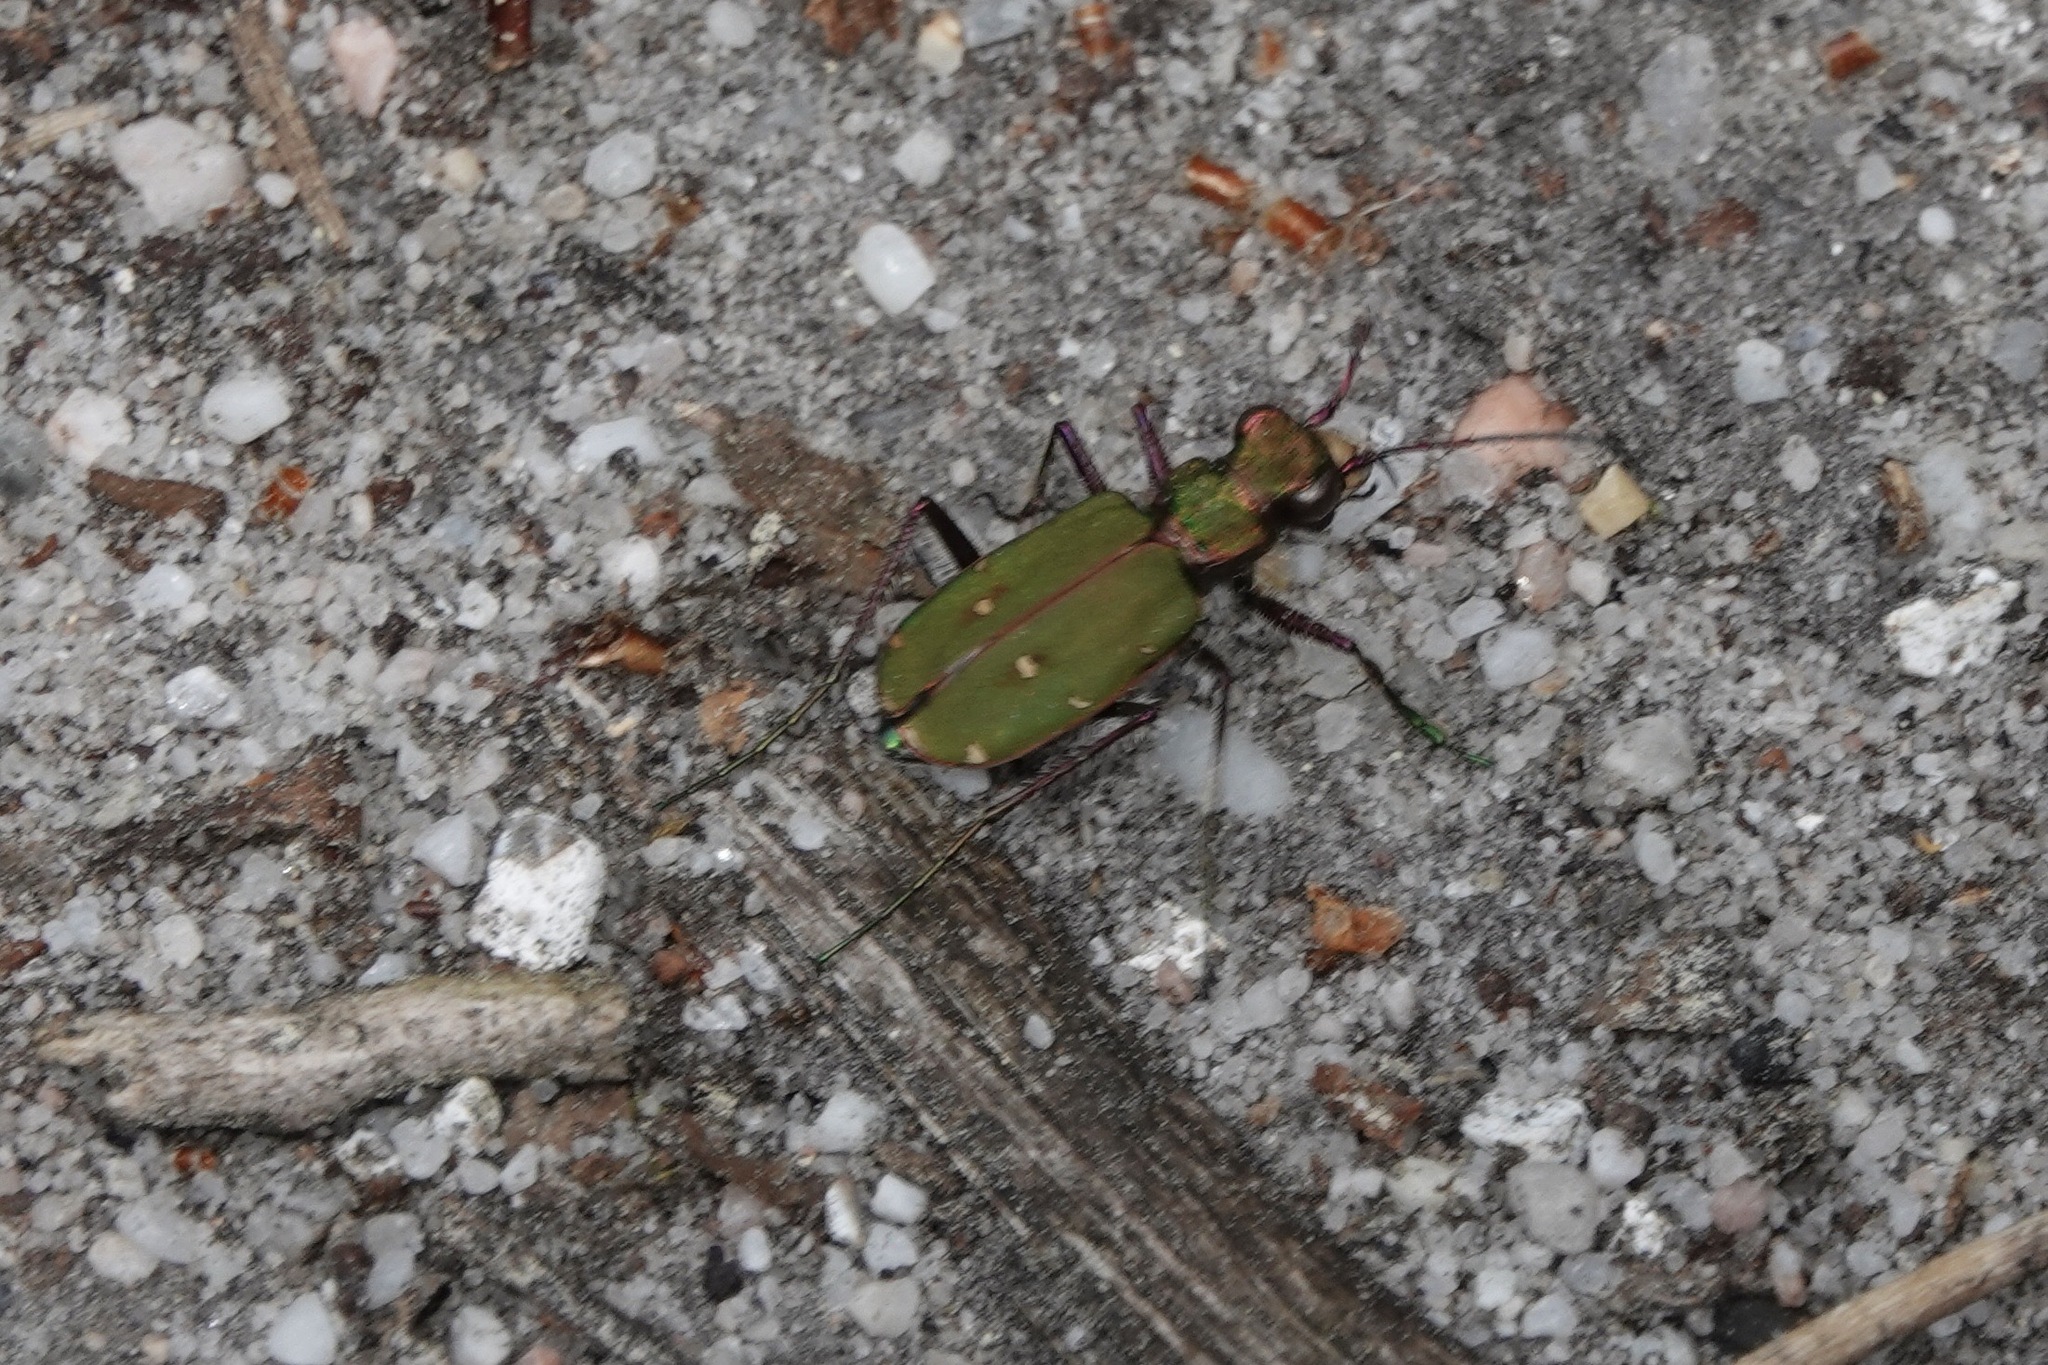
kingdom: Animalia
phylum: Arthropoda
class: Insecta
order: Coleoptera
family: Carabidae
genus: Cicindela
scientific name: Cicindela campestris
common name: Common tiger beetle
